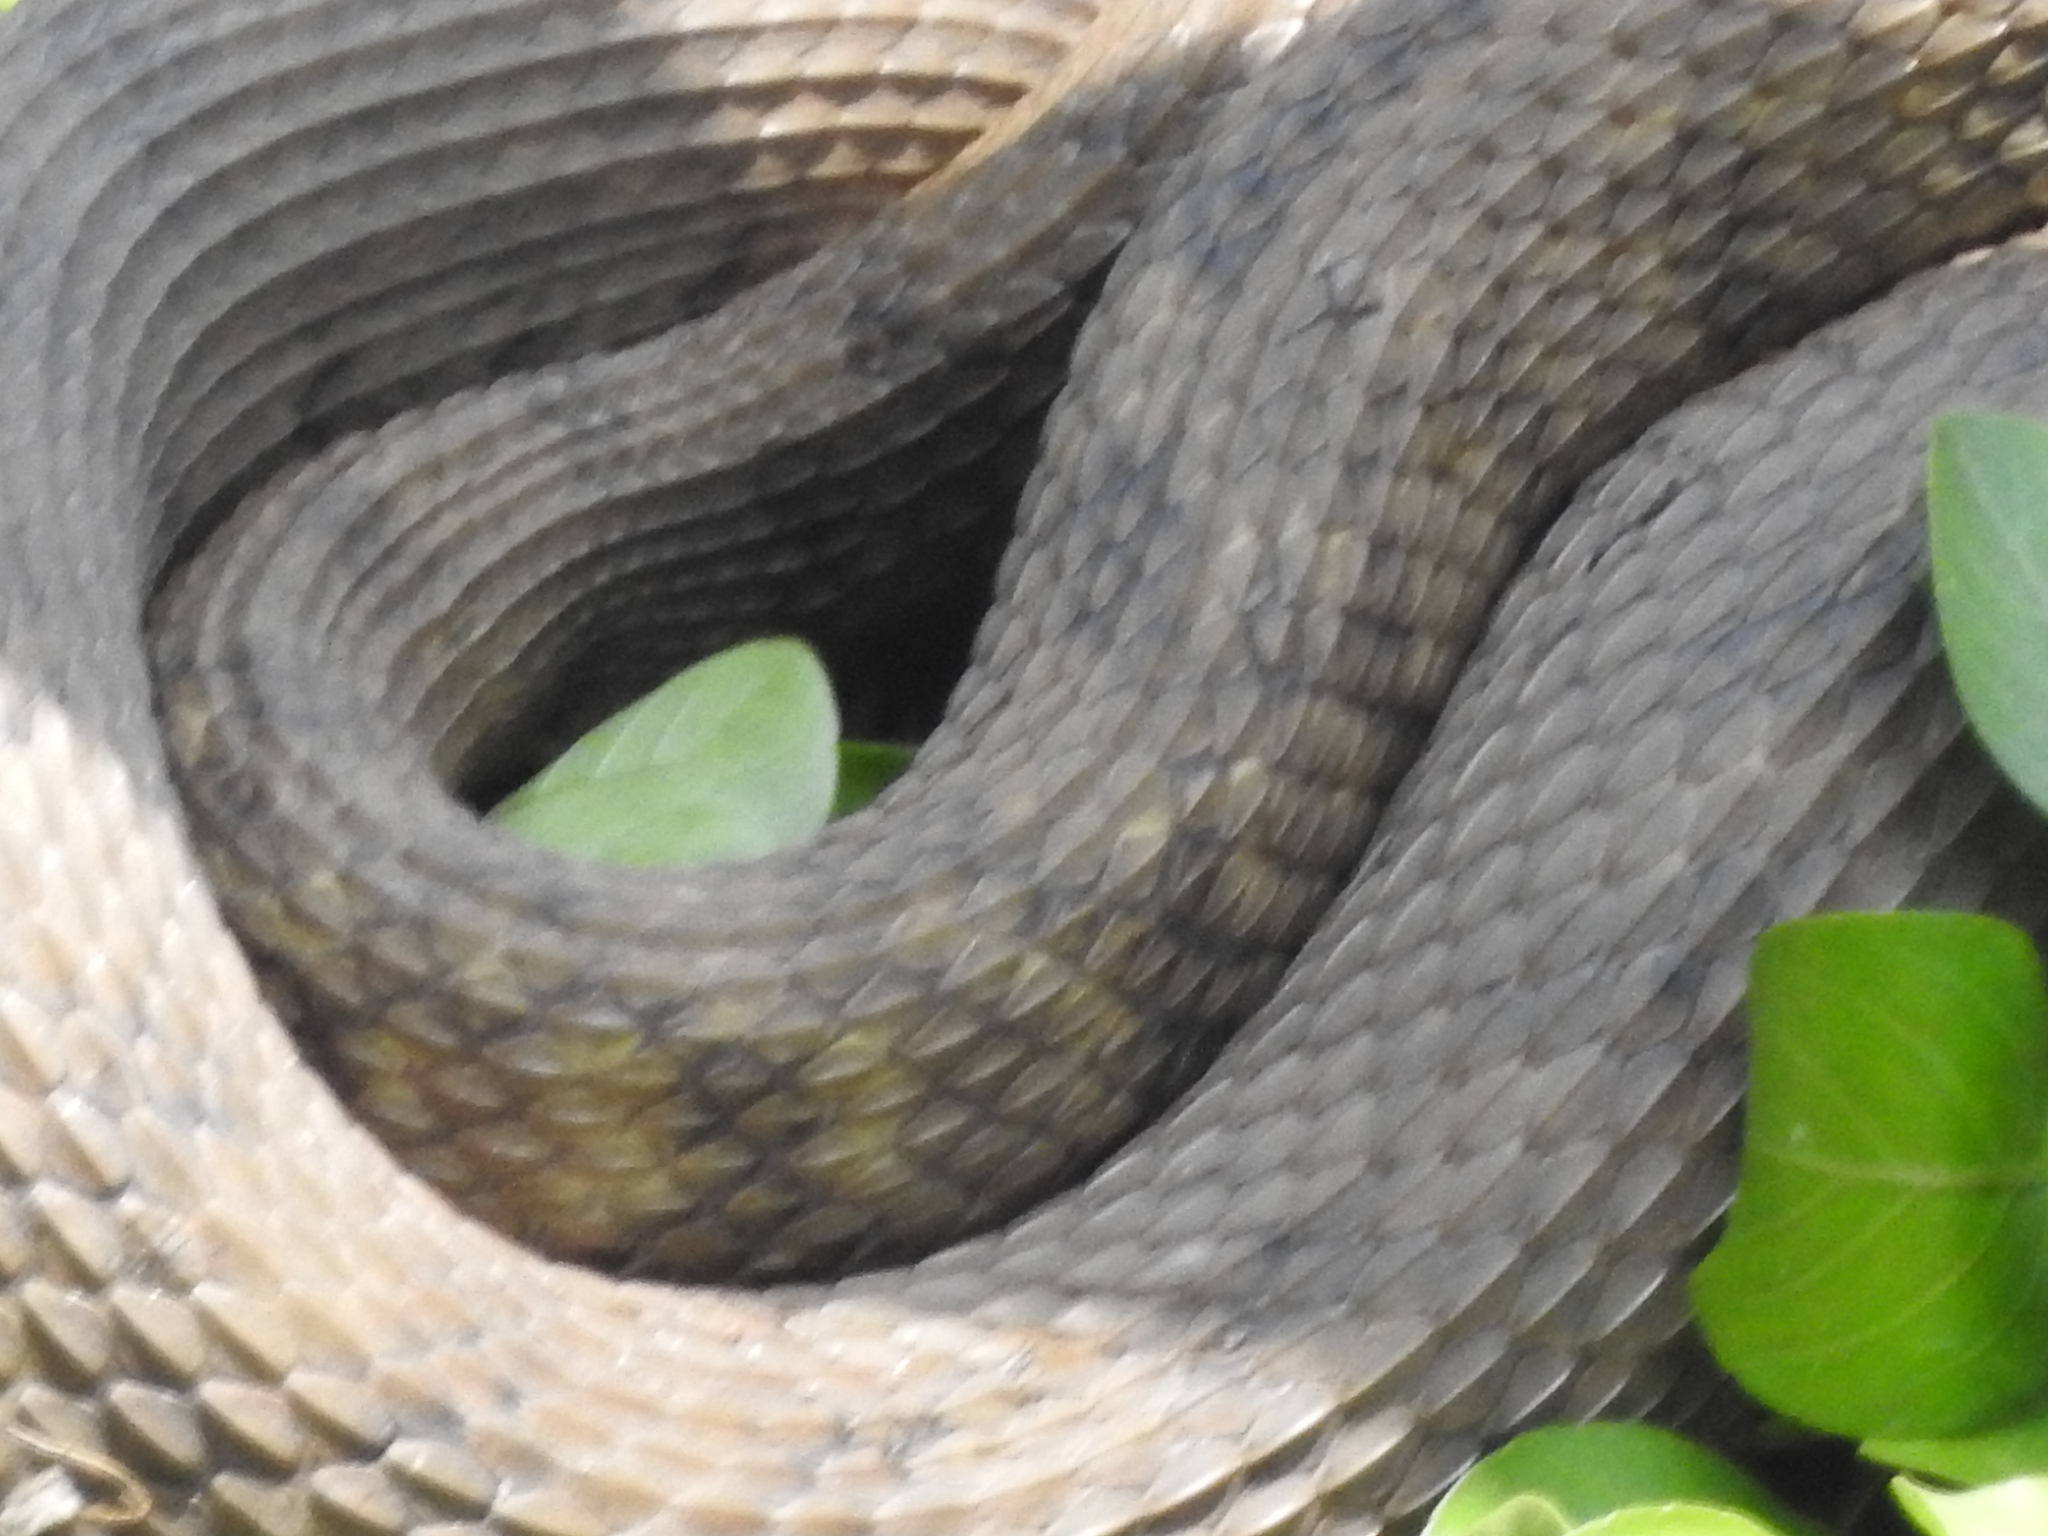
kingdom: Animalia
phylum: Chordata
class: Squamata
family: Colubridae
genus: Nerodia
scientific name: Nerodia rhombifer
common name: Diamondback water snake
